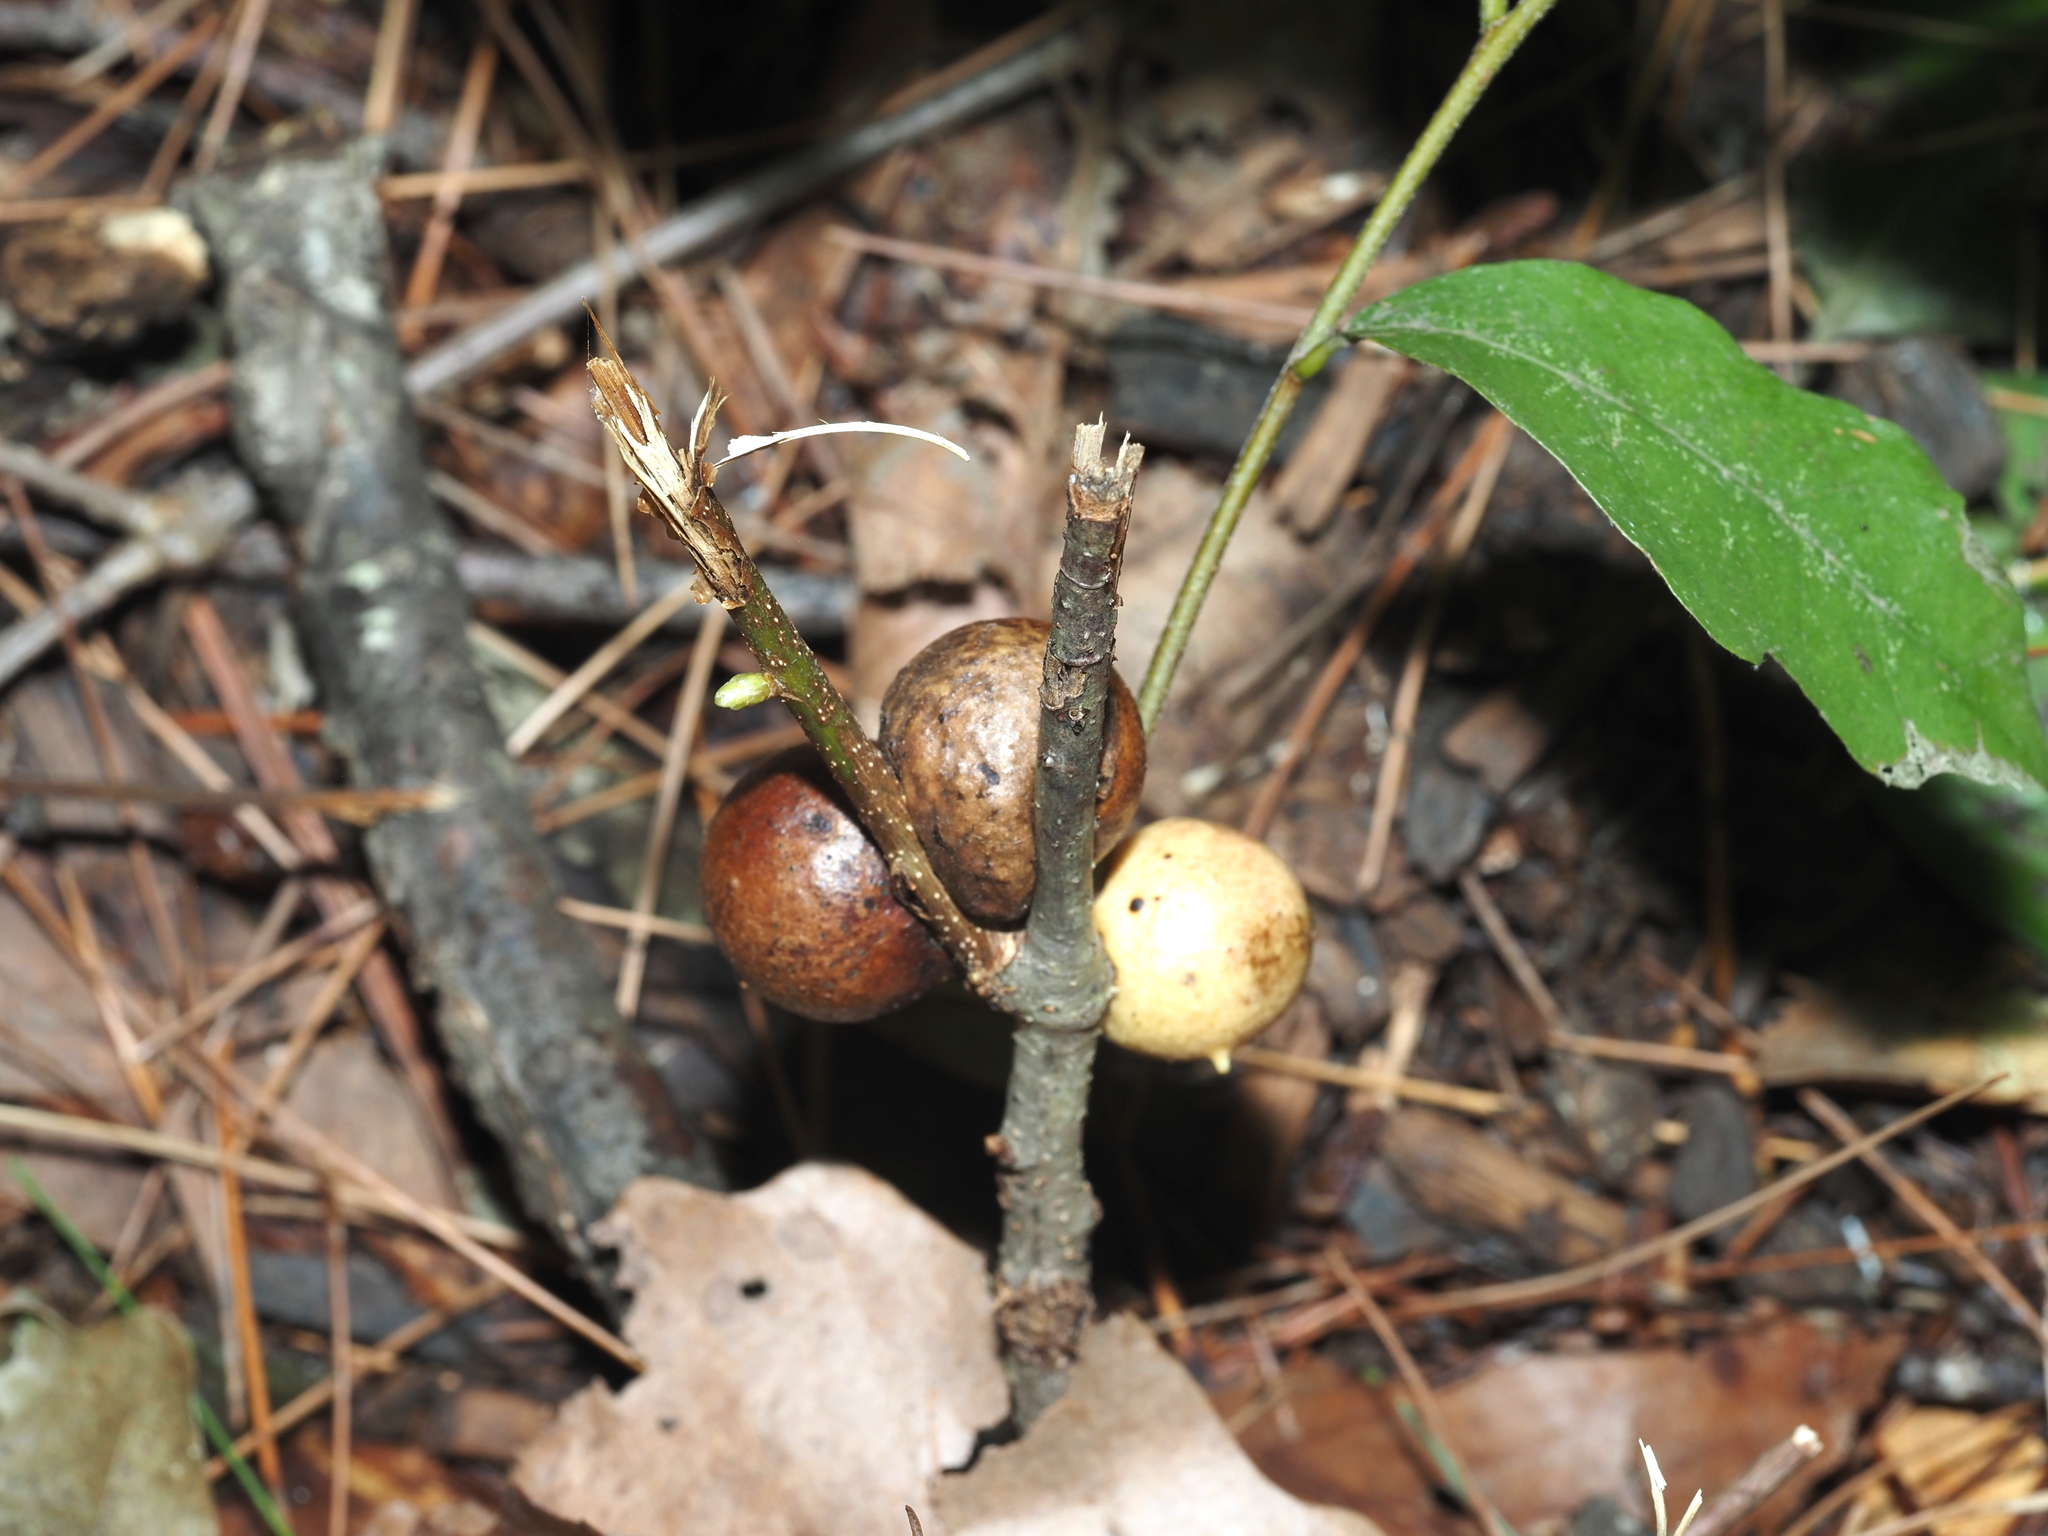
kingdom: Animalia
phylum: Arthropoda
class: Insecta
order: Hymenoptera
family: Cynipidae
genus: Disholcaspis
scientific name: Disholcaspis quercusglobulus
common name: Round bullet gall wasp
